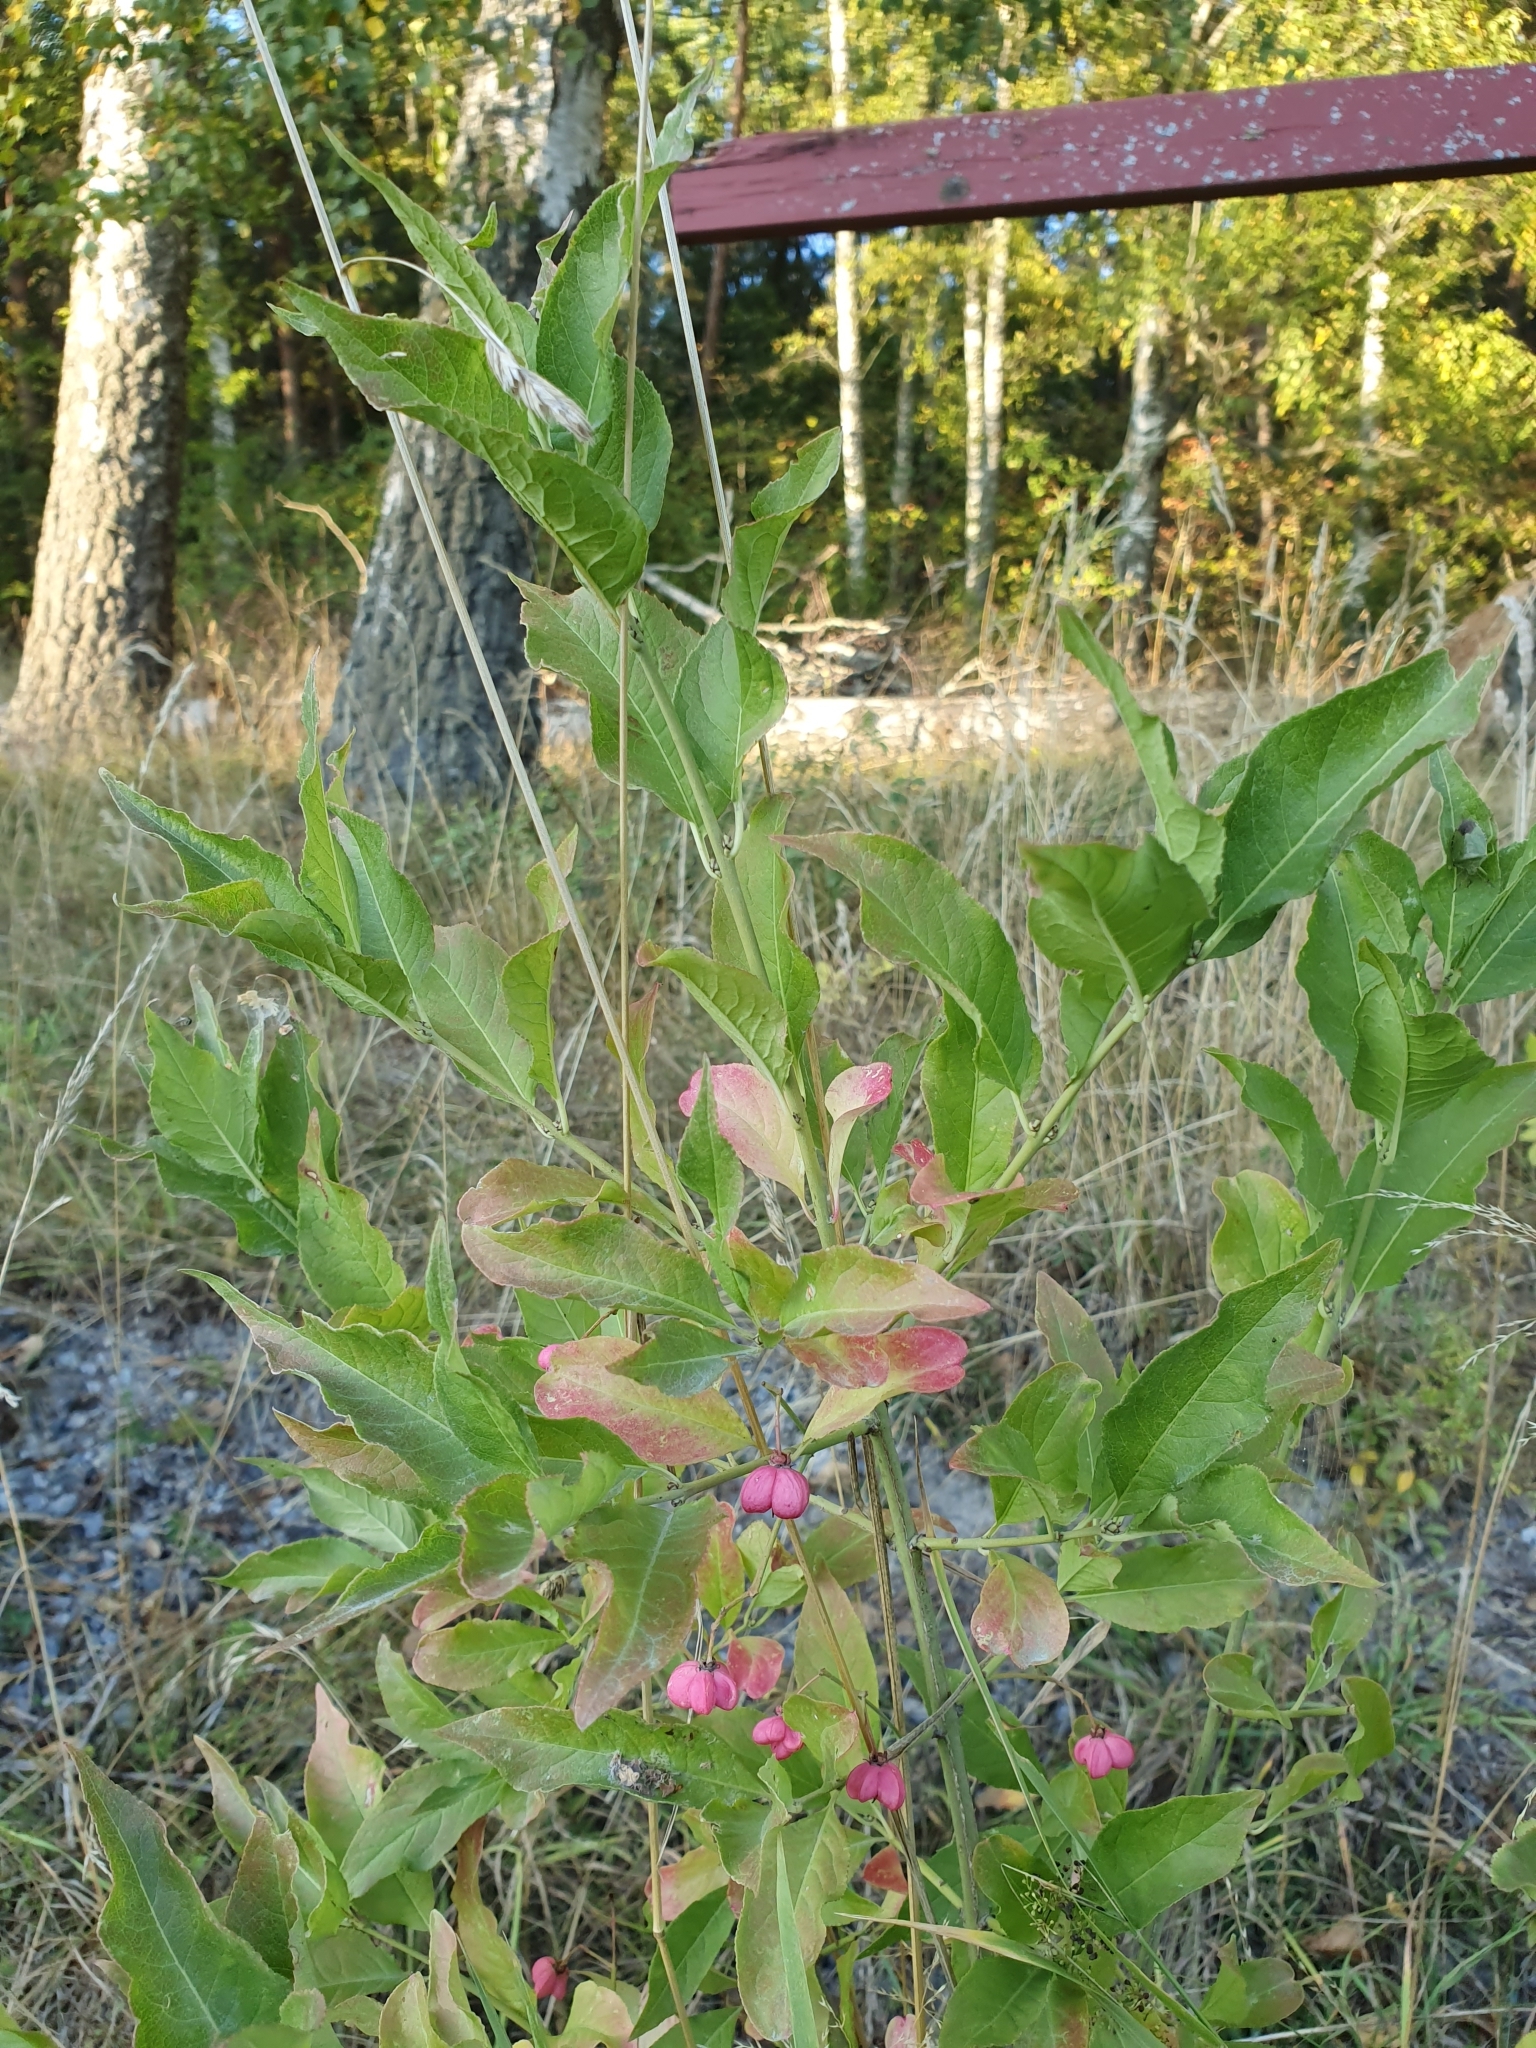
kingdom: Plantae
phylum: Tracheophyta
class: Magnoliopsida
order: Celastrales
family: Celastraceae
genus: Euonymus
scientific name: Euonymus europaeus
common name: Spindle
